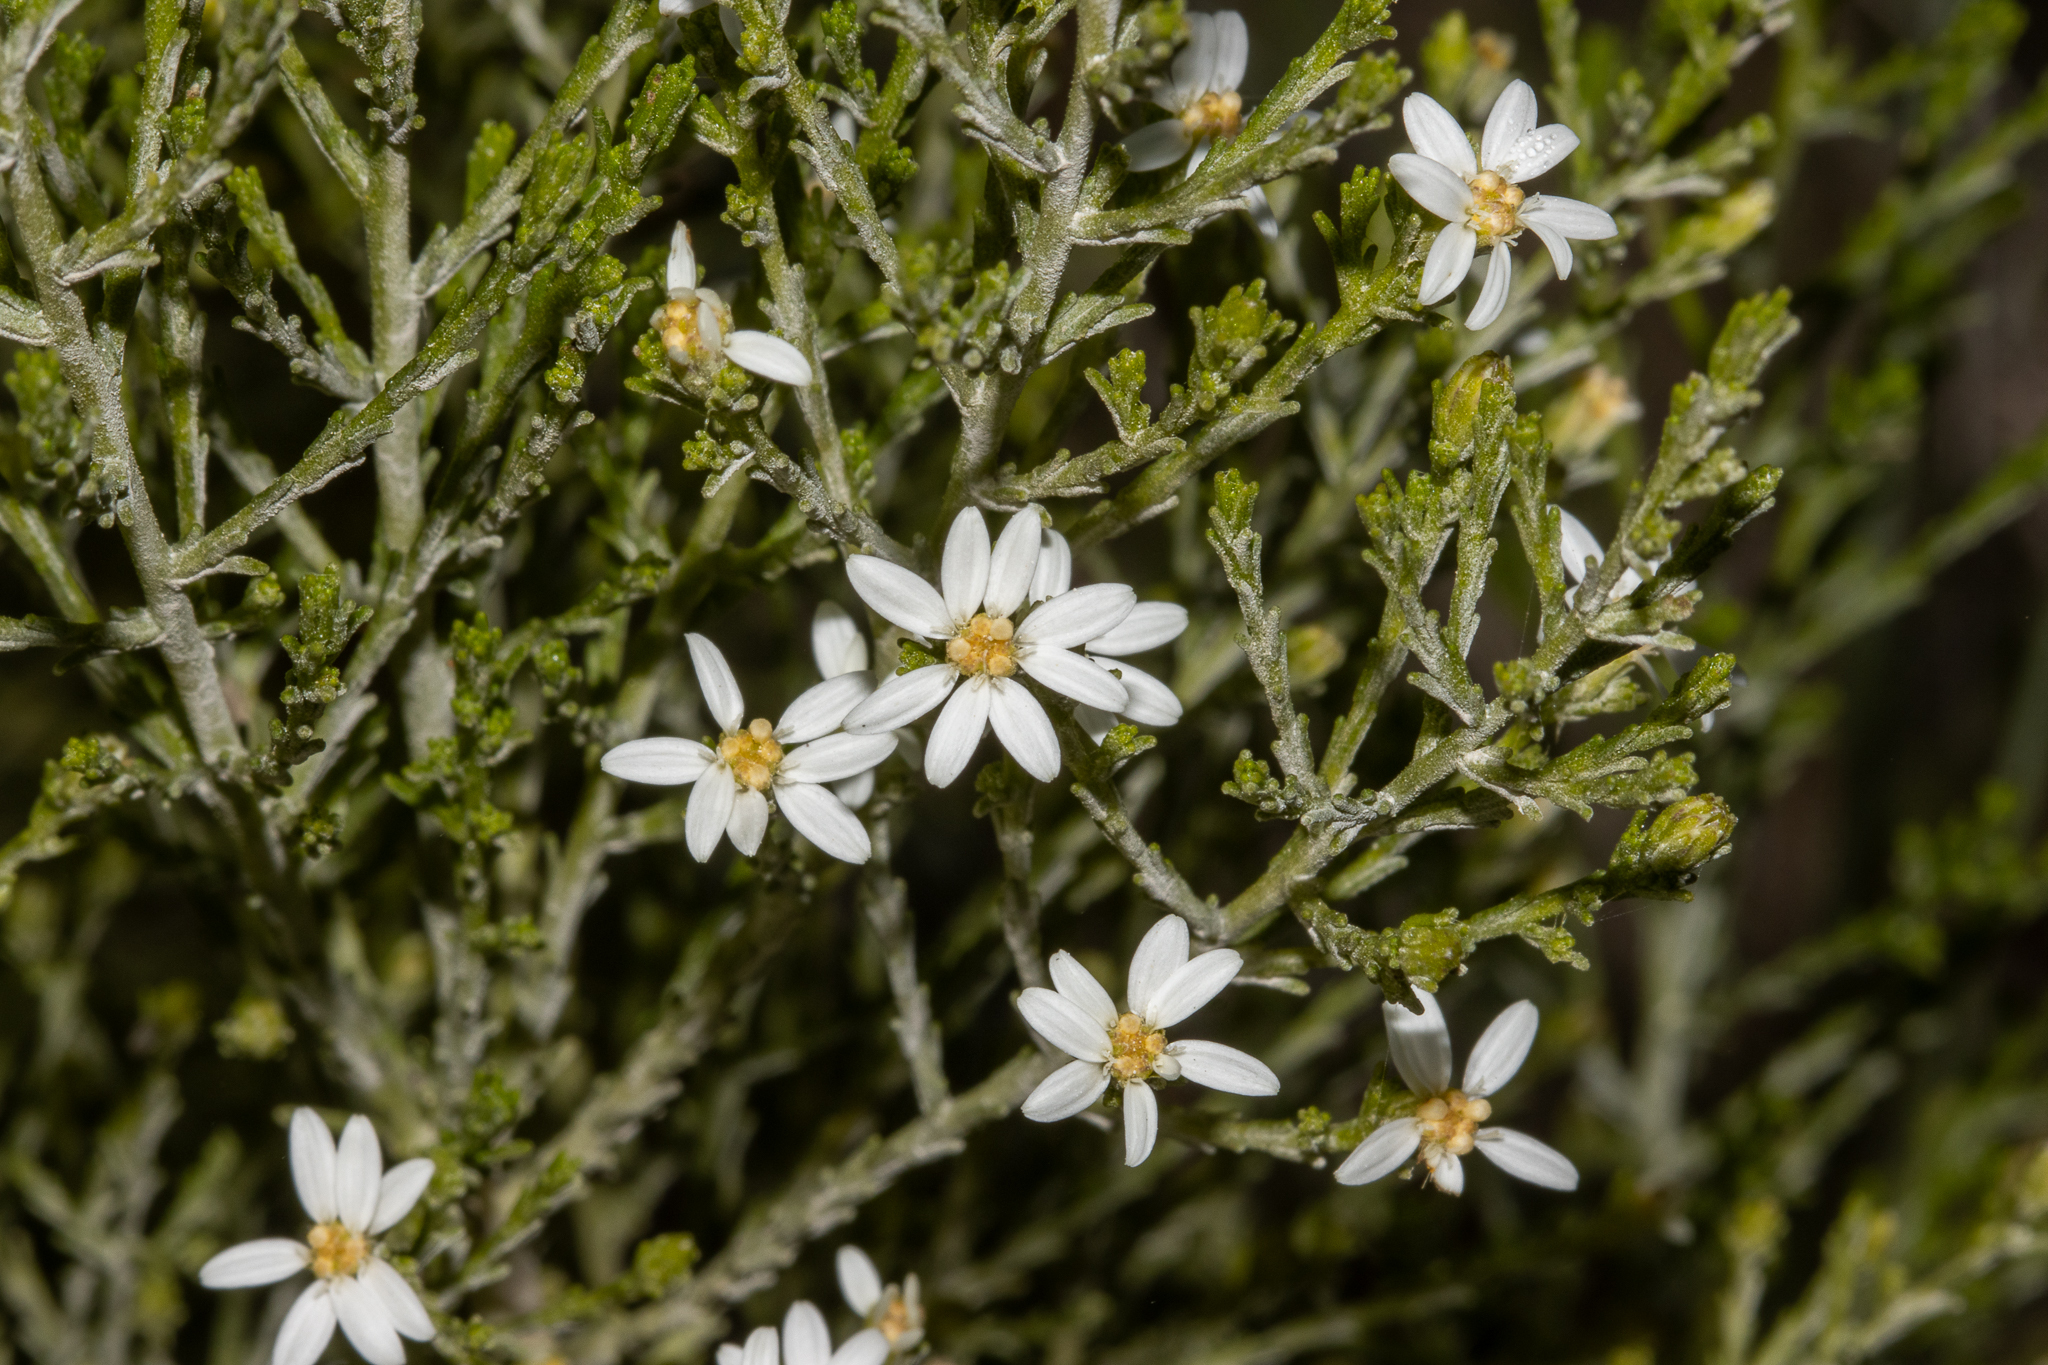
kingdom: Plantae
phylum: Tracheophyta
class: Magnoliopsida
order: Asterales
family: Asteraceae
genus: Olearia
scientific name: Olearia teretifolia
